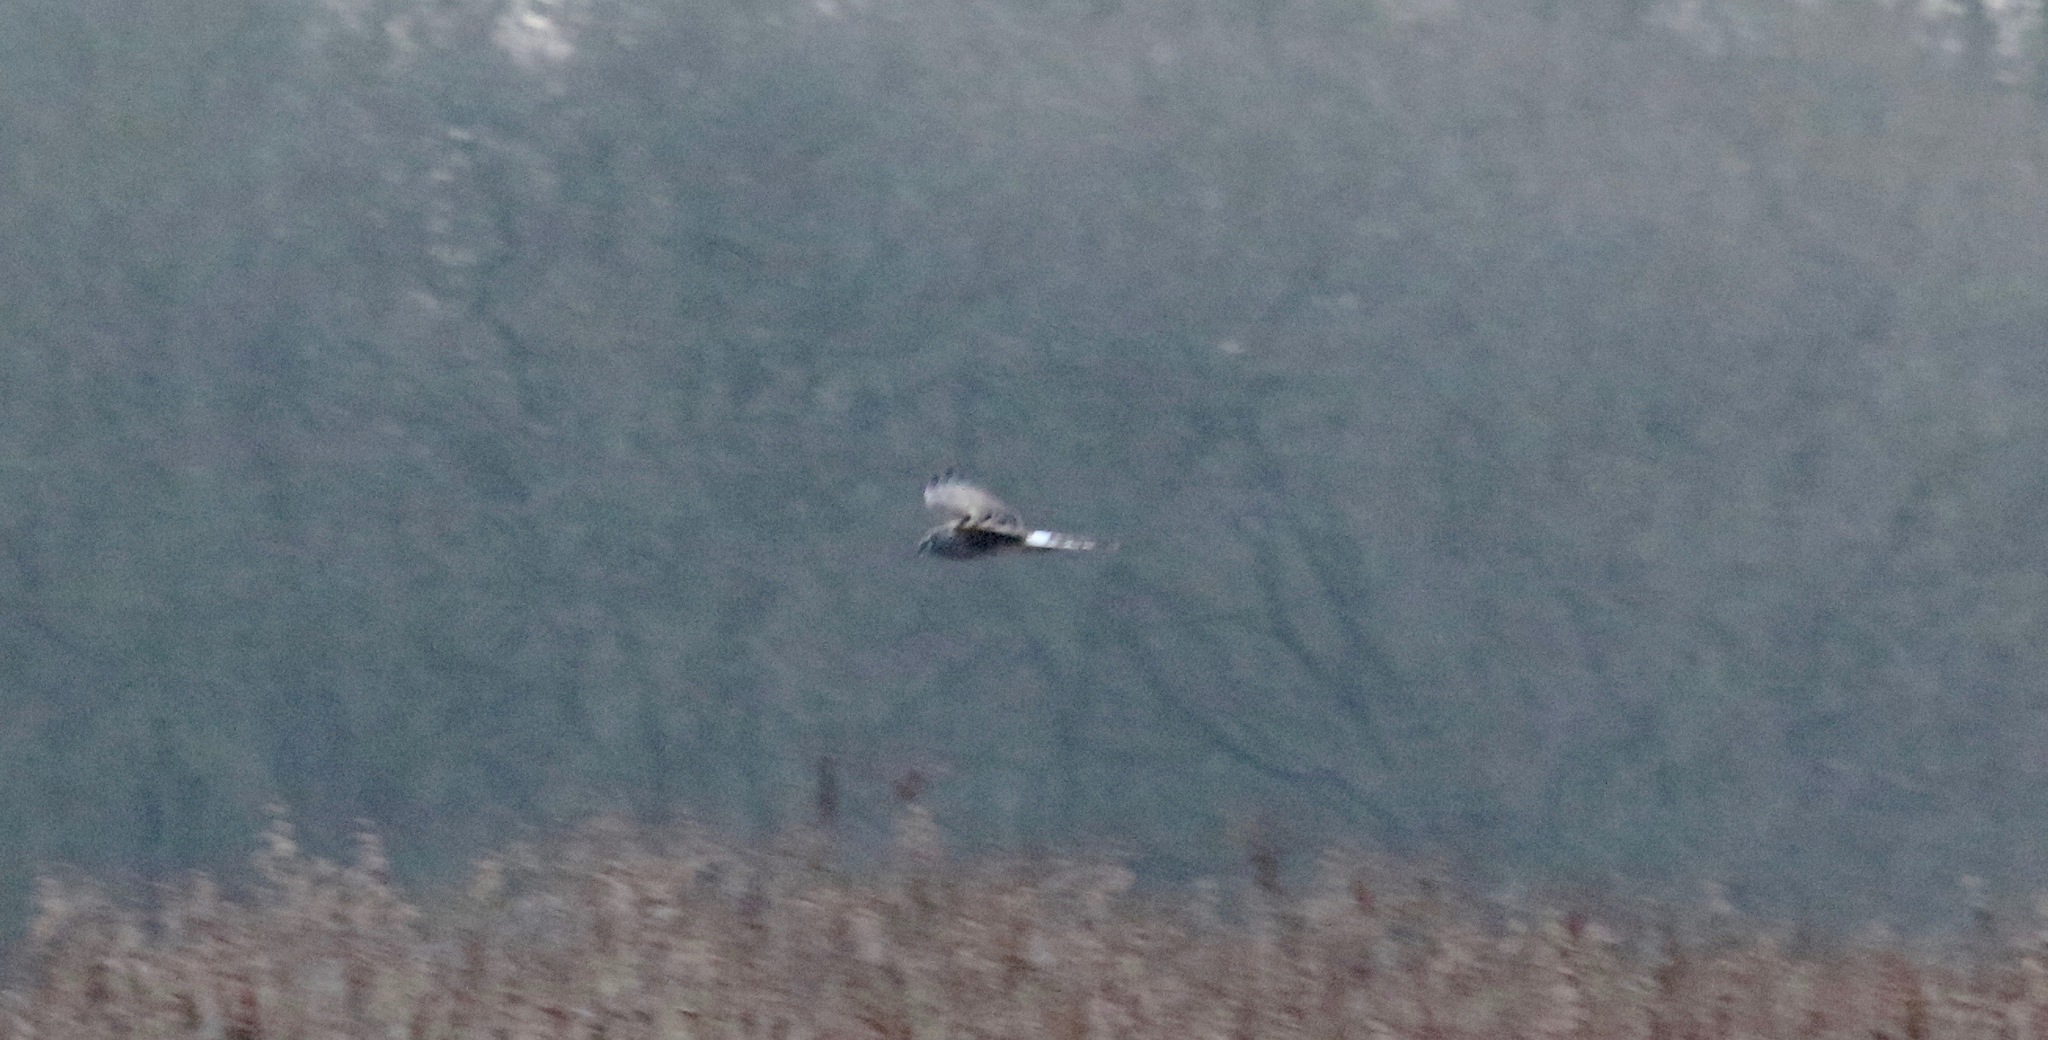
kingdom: Animalia
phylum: Chordata
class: Aves
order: Accipitriformes
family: Accipitridae
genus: Circus
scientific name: Circus cyaneus
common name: Hen harrier
